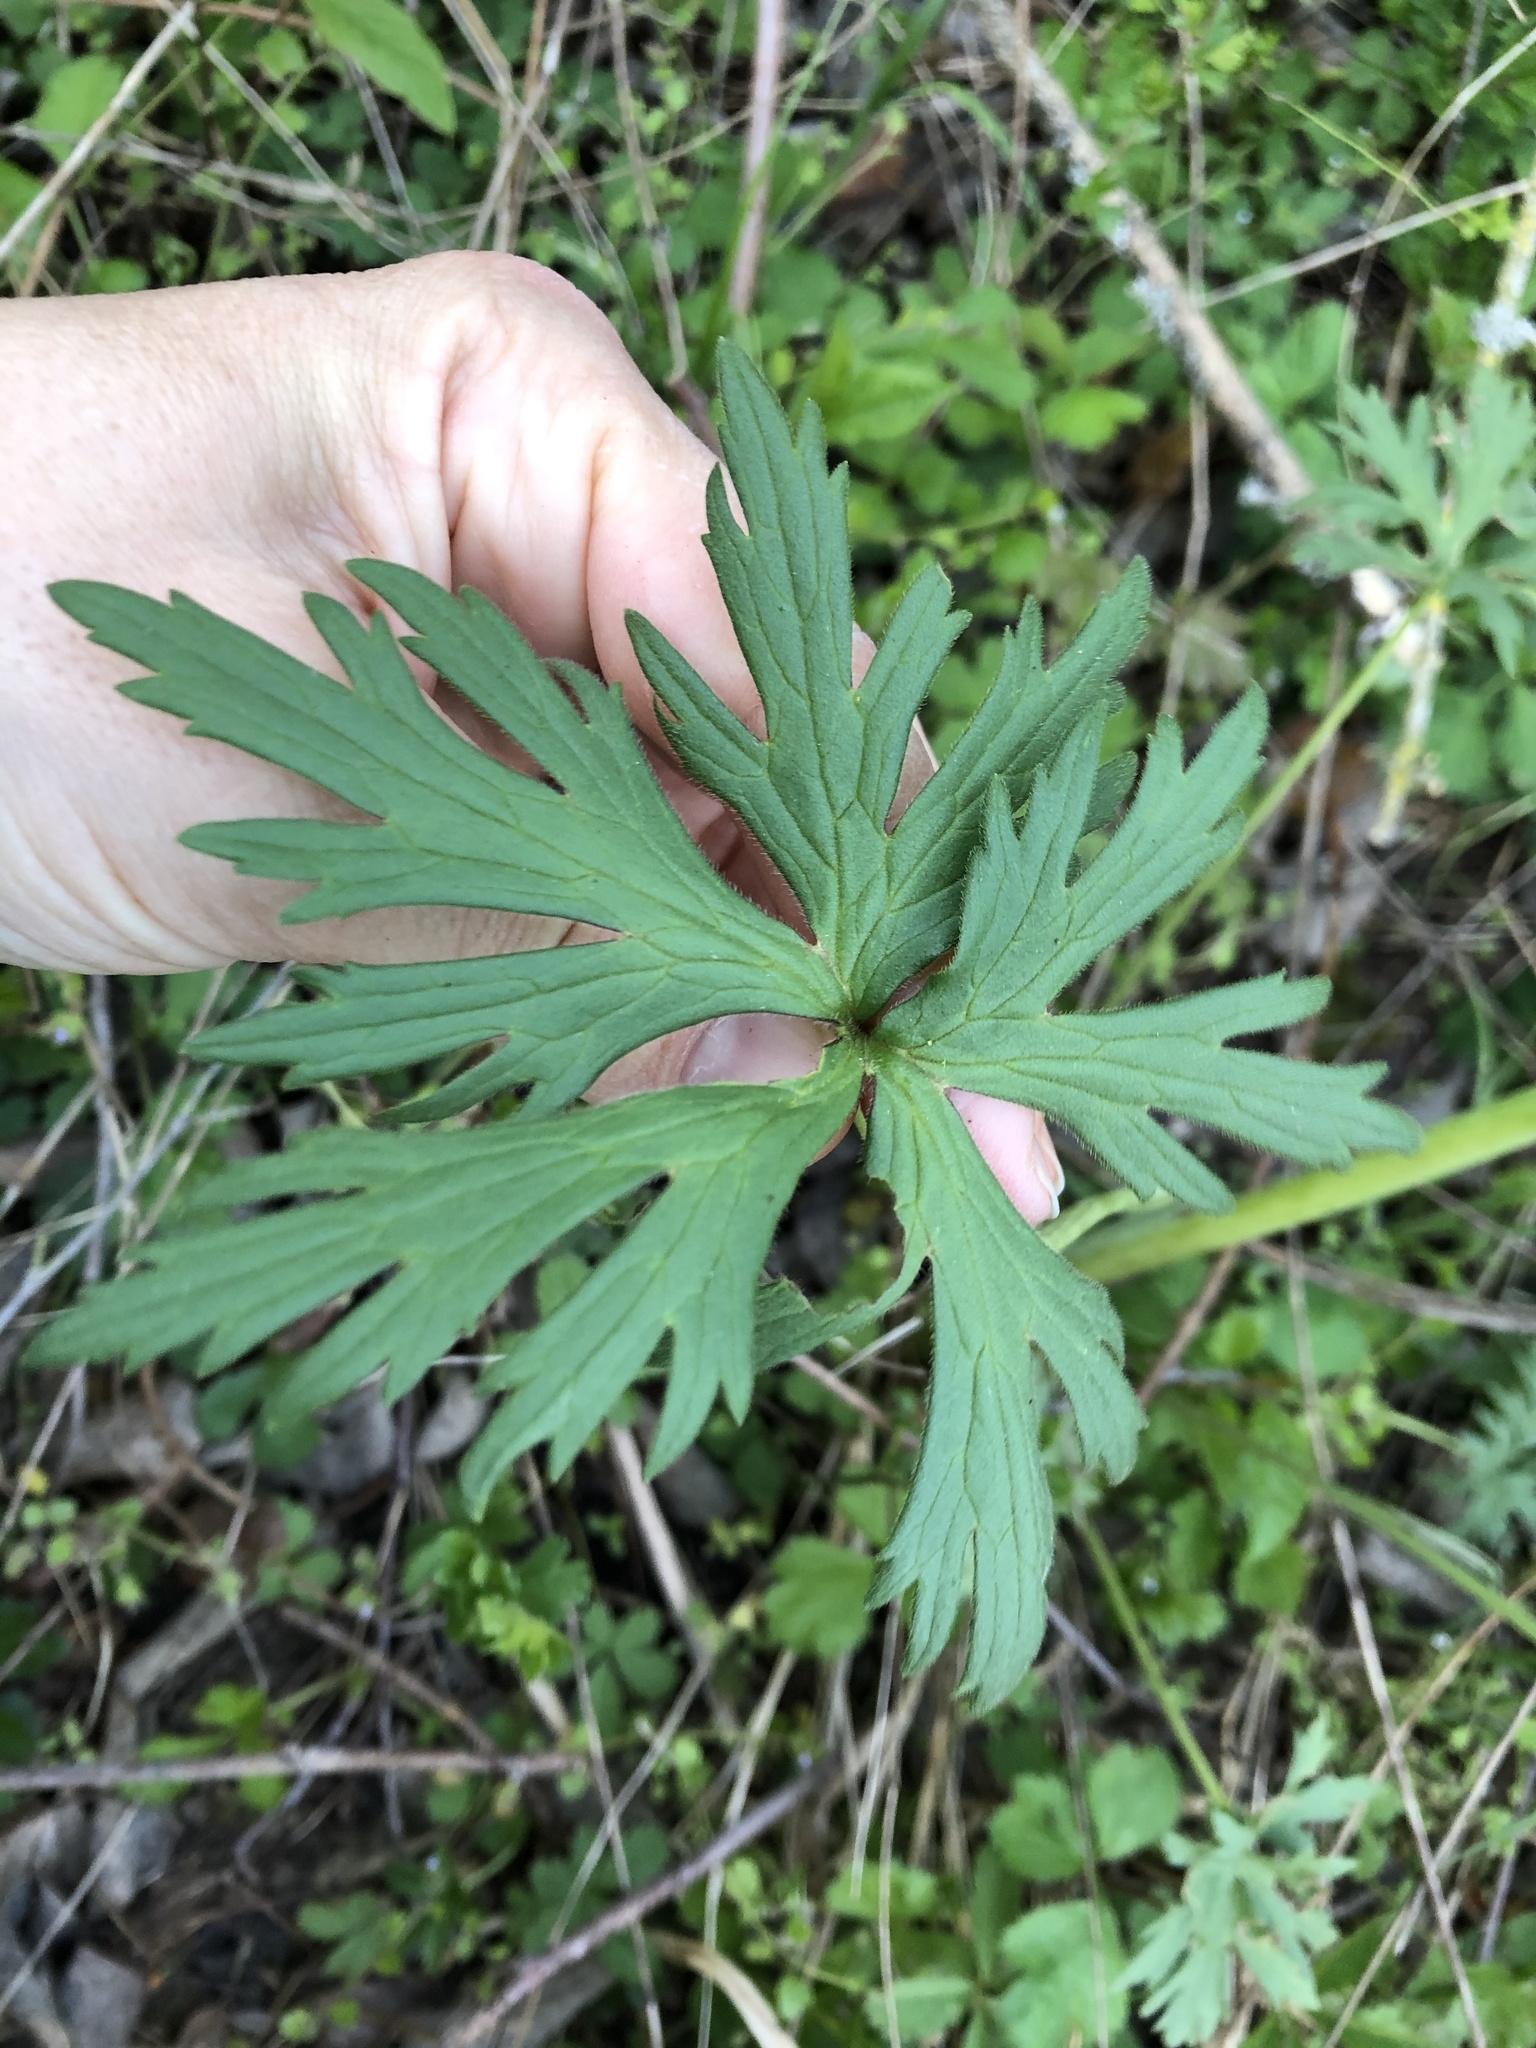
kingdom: Plantae
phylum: Tracheophyta
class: Magnoliopsida
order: Ranunculales
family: Ranunculaceae
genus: Ranunculus
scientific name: Ranunculus acris
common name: Meadow buttercup
